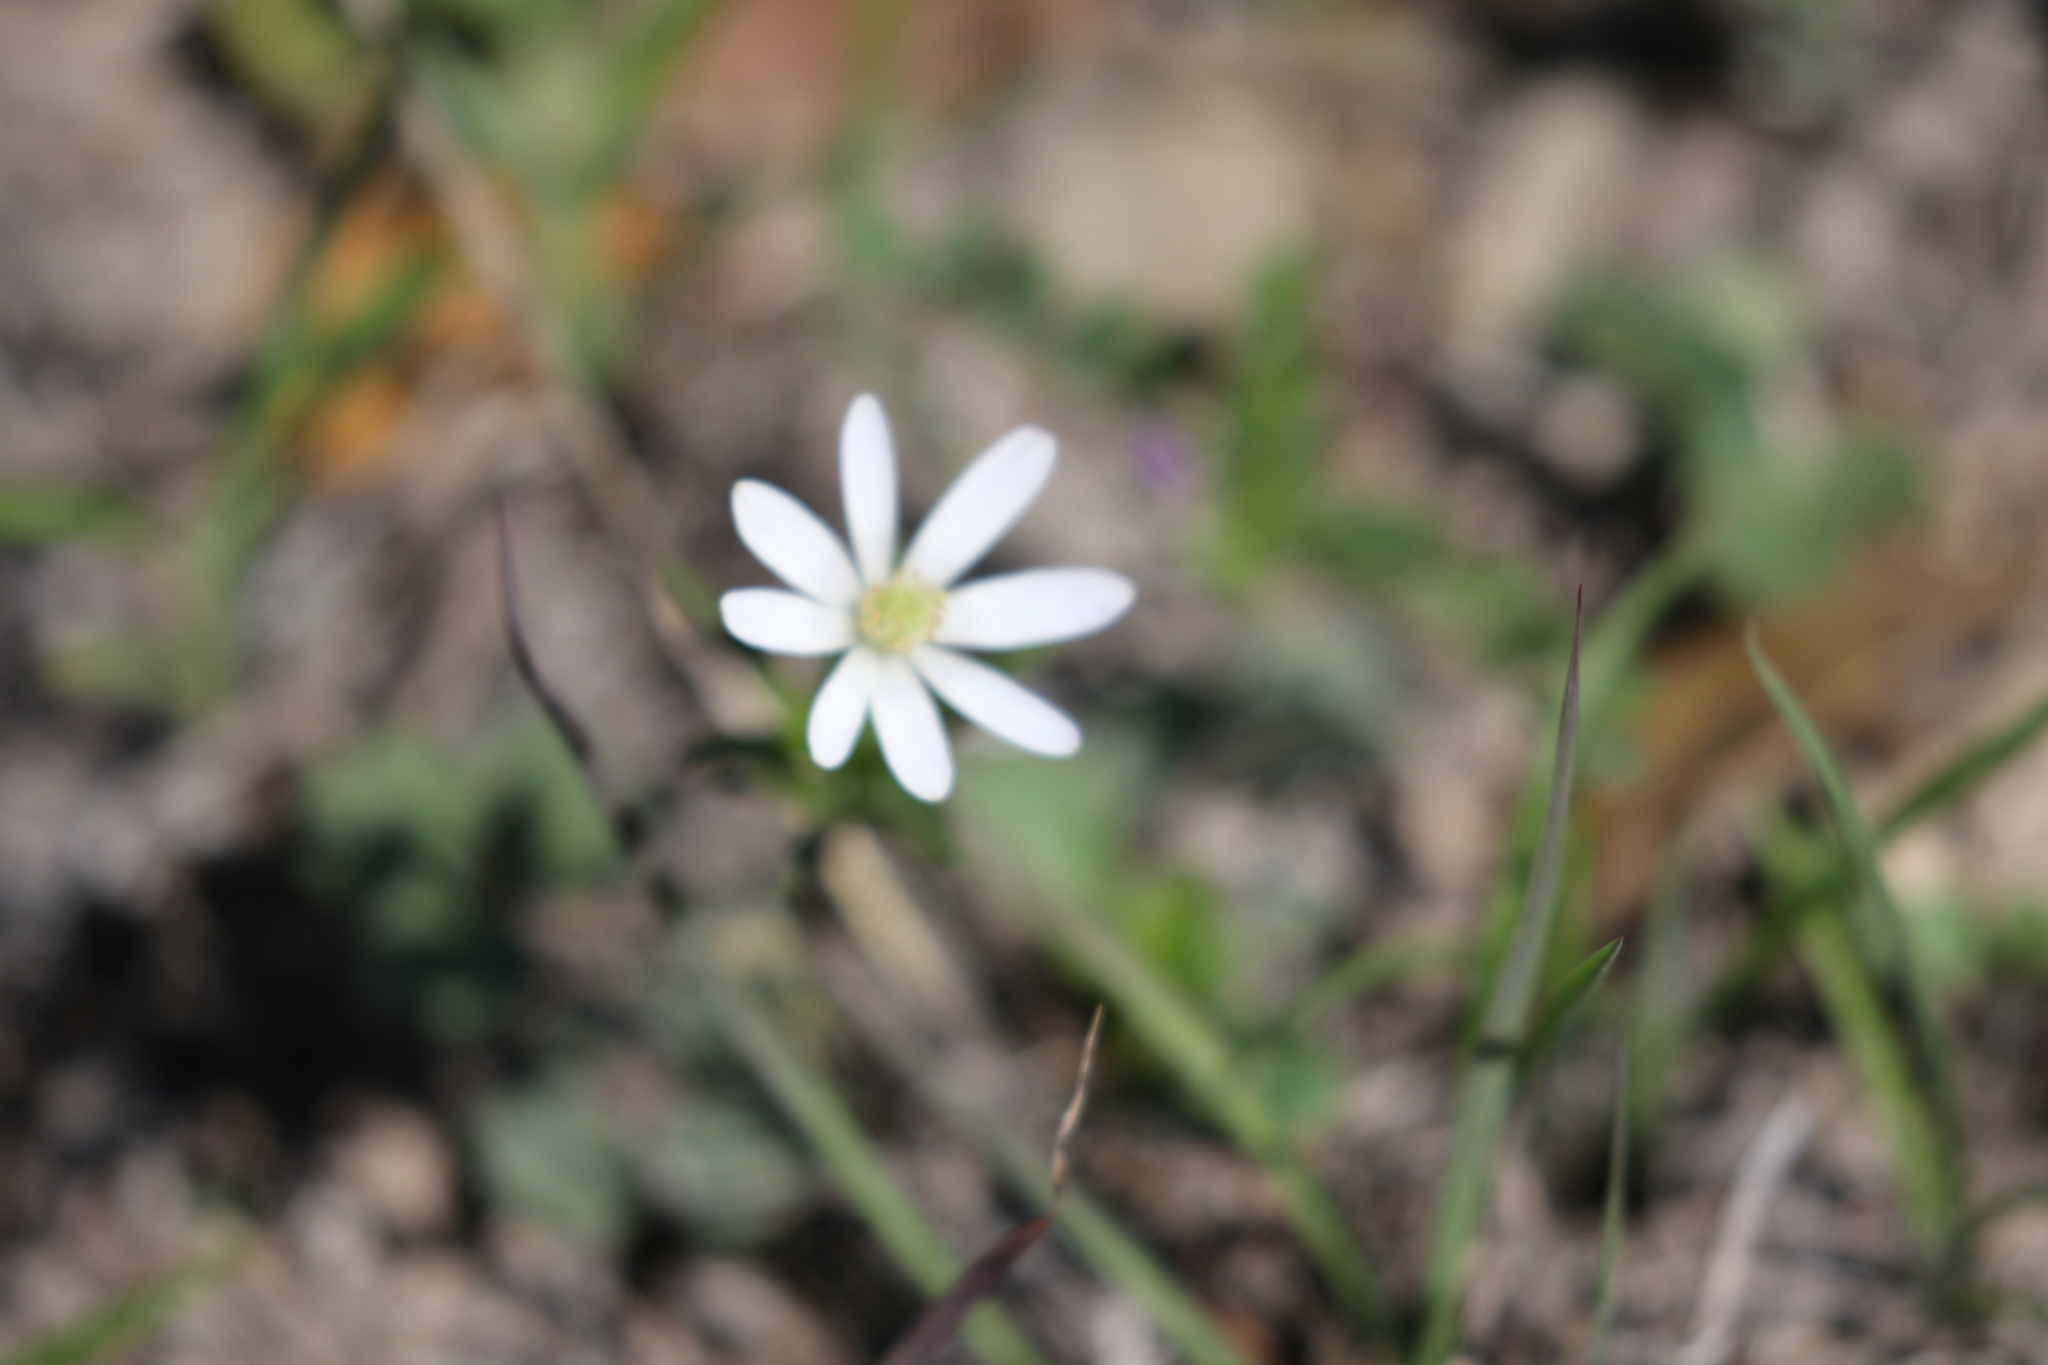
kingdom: Plantae
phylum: Tracheophyta
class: Magnoliopsida
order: Ranunculales
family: Ranunculaceae
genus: Anemone
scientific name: Anemone berlandieri
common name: Ten-petal anemone
